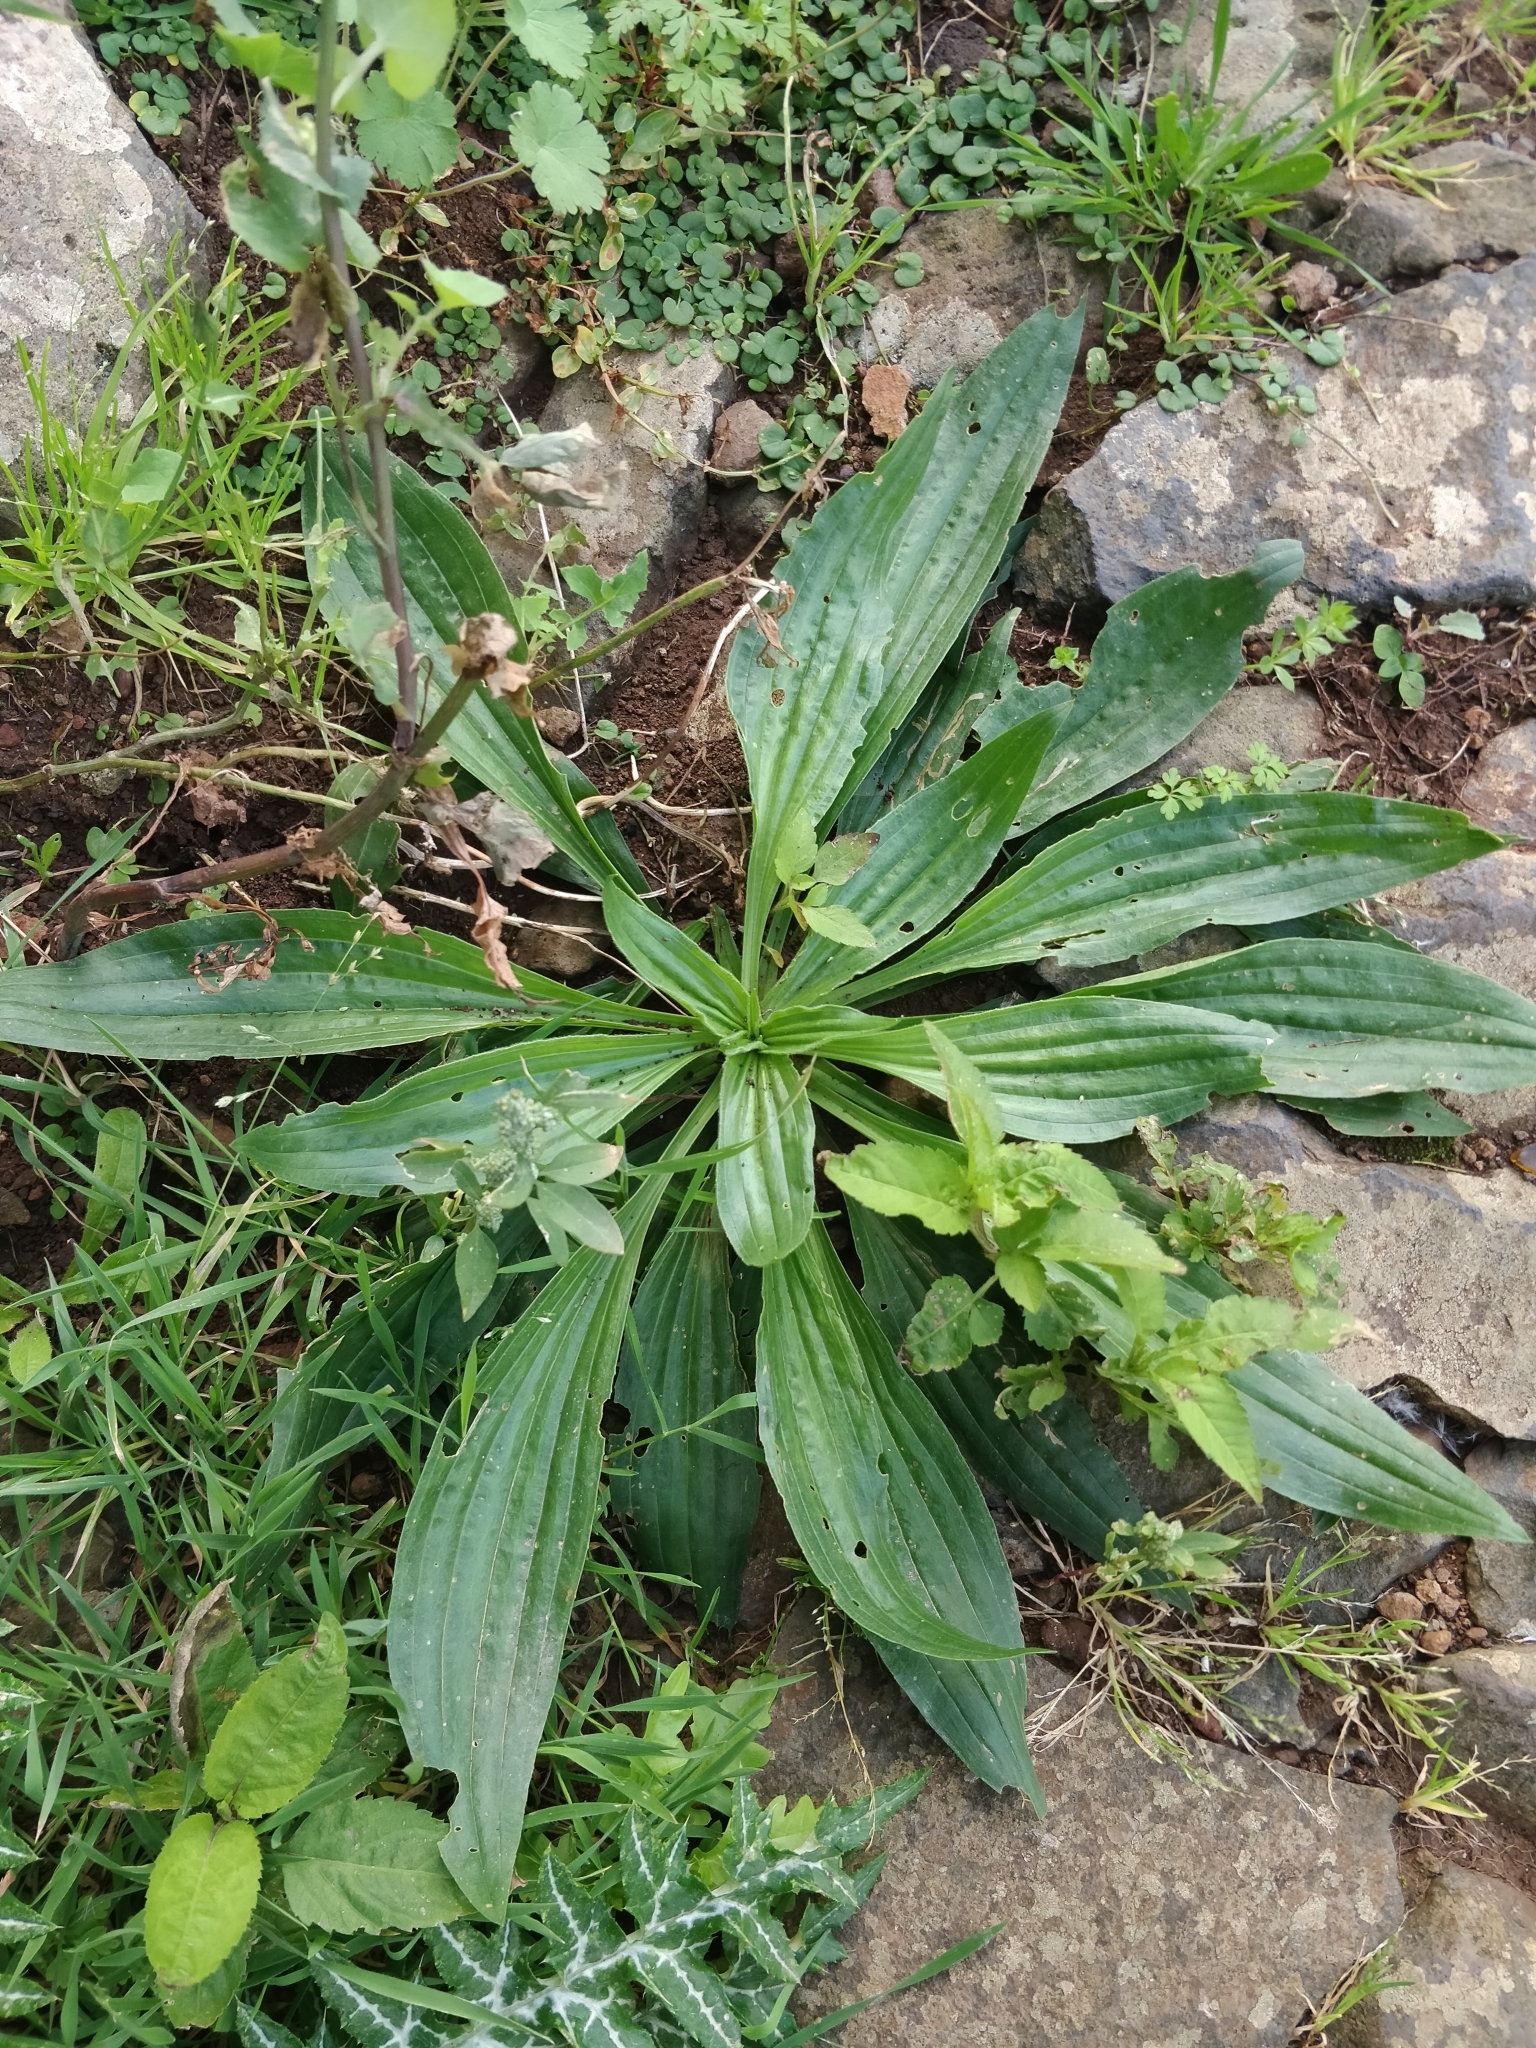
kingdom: Plantae
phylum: Tracheophyta
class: Magnoliopsida
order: Lamiales
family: Plantaginaceae
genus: Plantago
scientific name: Plantago lanceolata
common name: Ribwort plantain
